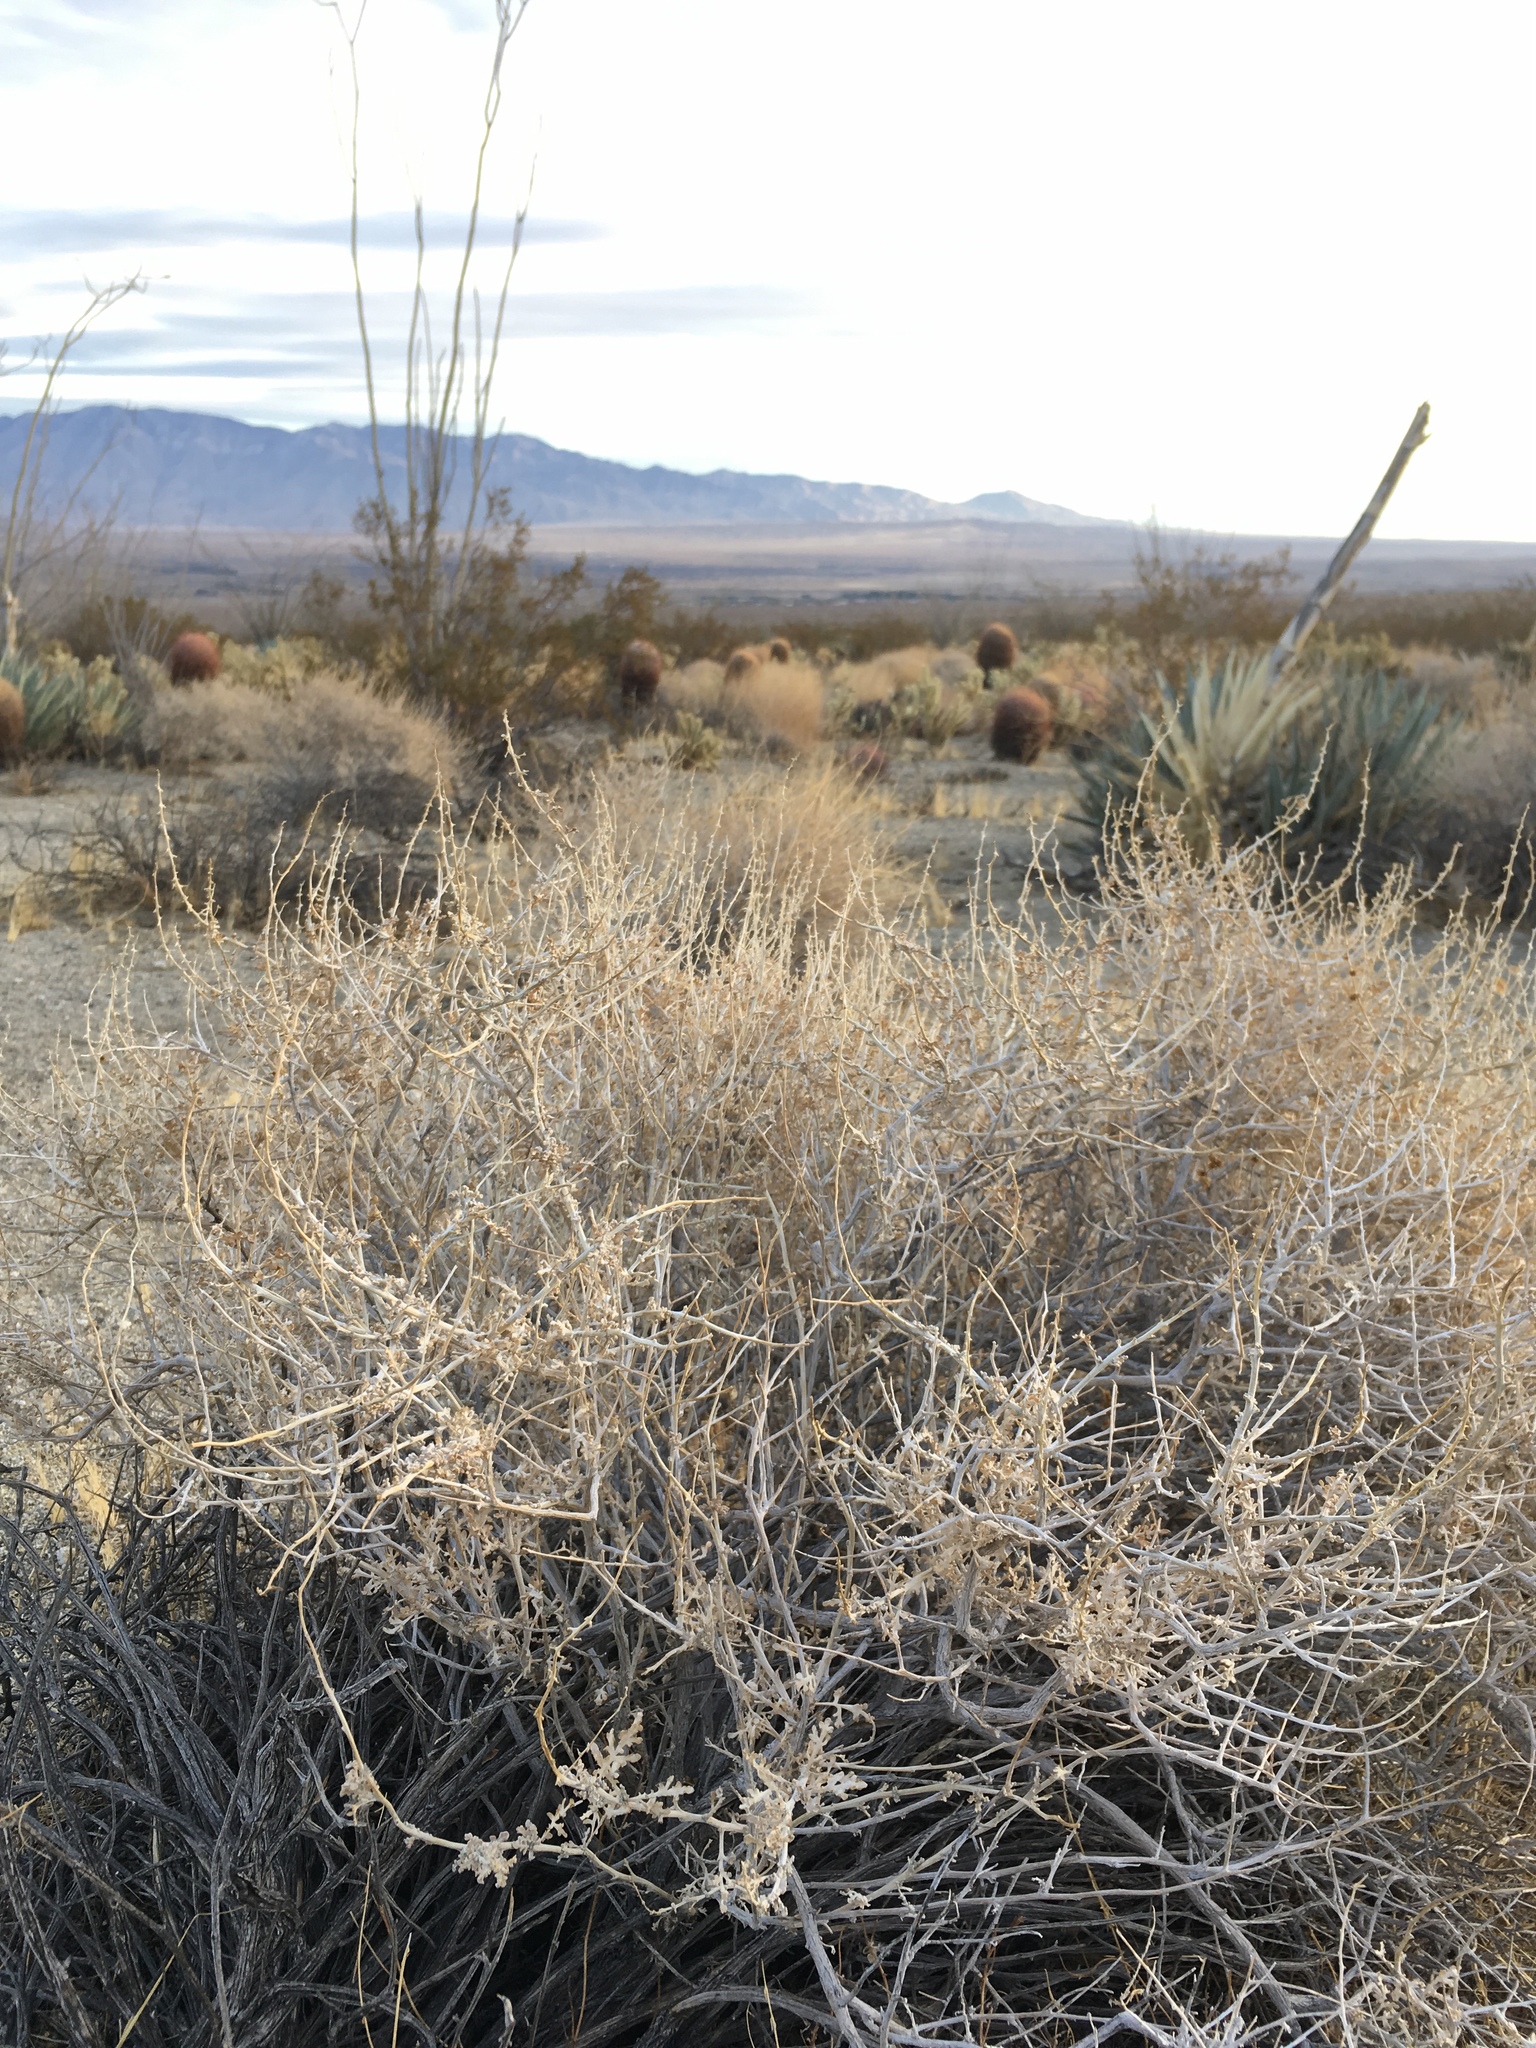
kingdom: Plantae
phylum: Tracheophyta
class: Magnoliopsida
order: Asterales
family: Asteraceae
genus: Ambrosia
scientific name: Ambrosia dumosa
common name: Bur-sage
